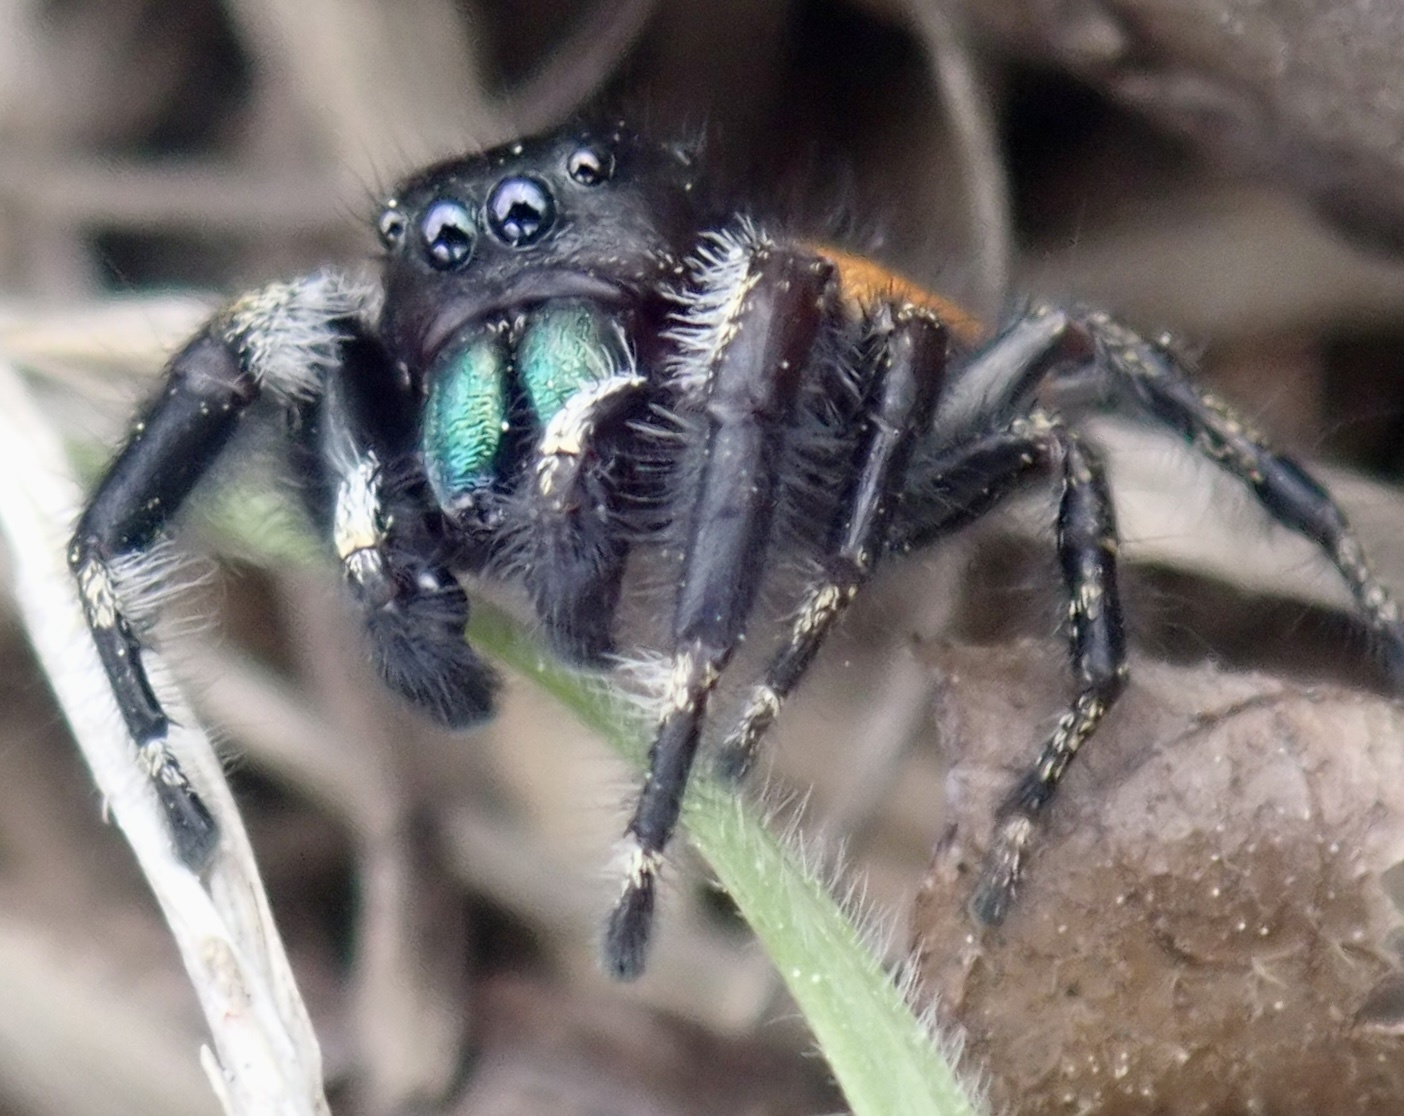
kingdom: Animalia
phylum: Arthropoda
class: Arachnida
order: Araneae
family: Salticidae
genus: Phidippus
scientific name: Phidippus princeps
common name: Grayish jumping spider
